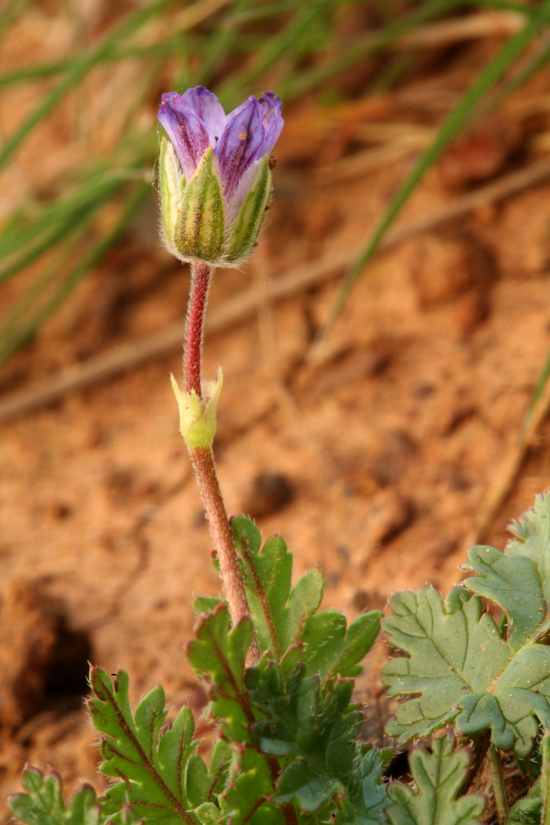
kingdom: Plantae
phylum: Tracheophyta
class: Magnoliopsida
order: Geraniales
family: Geraniaceae
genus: Erodium
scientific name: Erodium botrys
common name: Mediterranean stork's-bill
